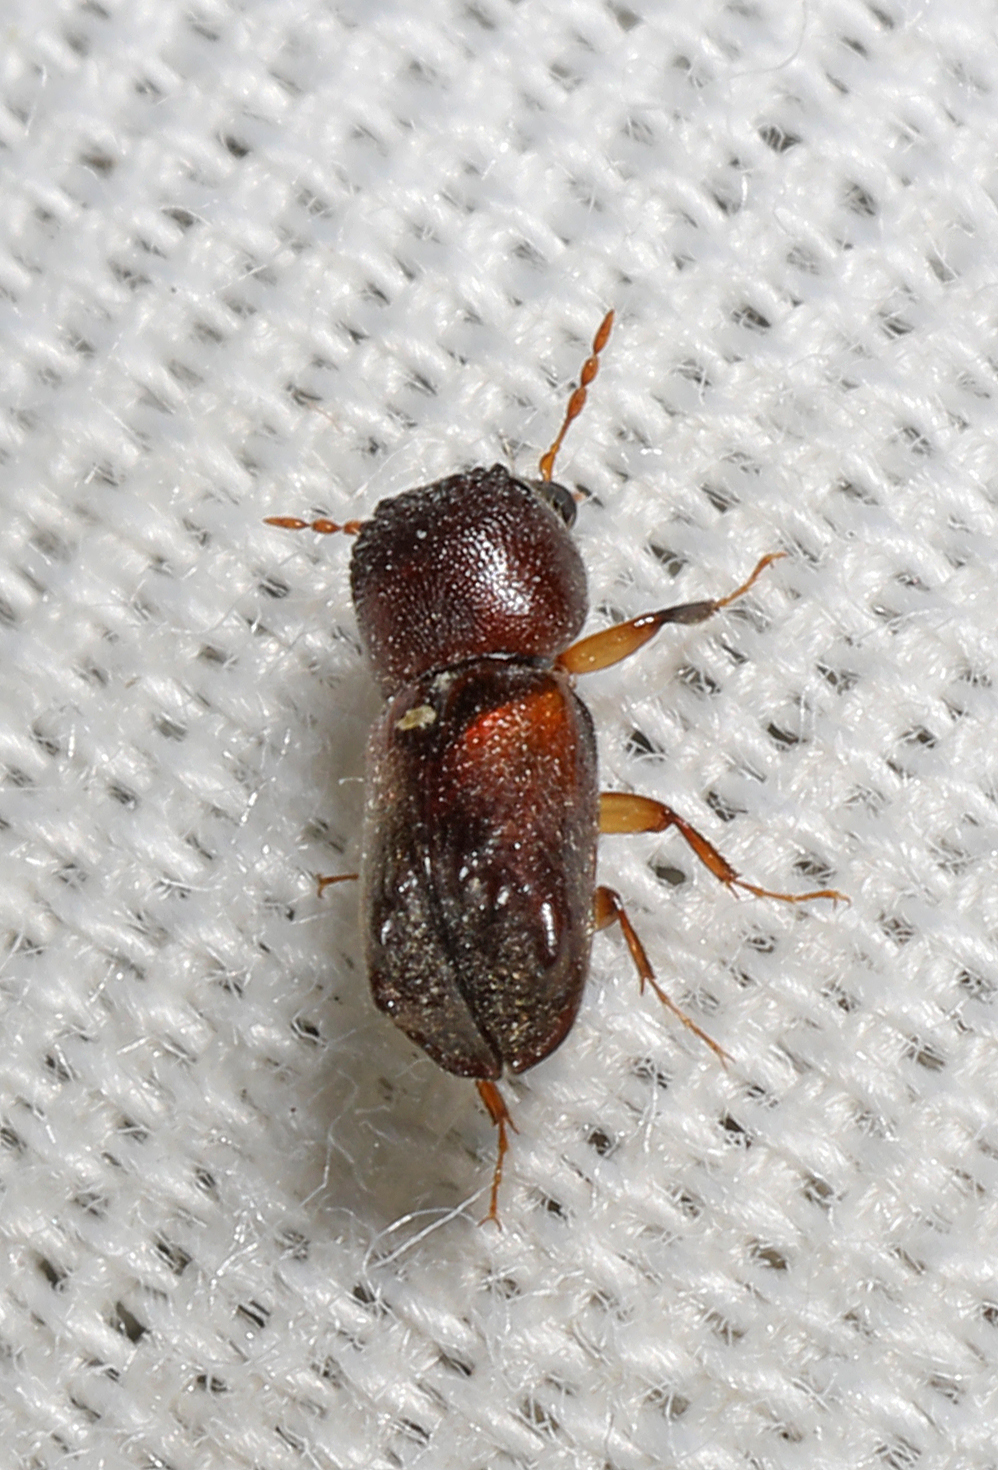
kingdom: Animalia
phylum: Arthropoda
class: Insecta
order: Coleoptera
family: Bostrichidae
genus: Xylobiops
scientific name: Xylobiops basilaris
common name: Red-shouldered bostrichid
